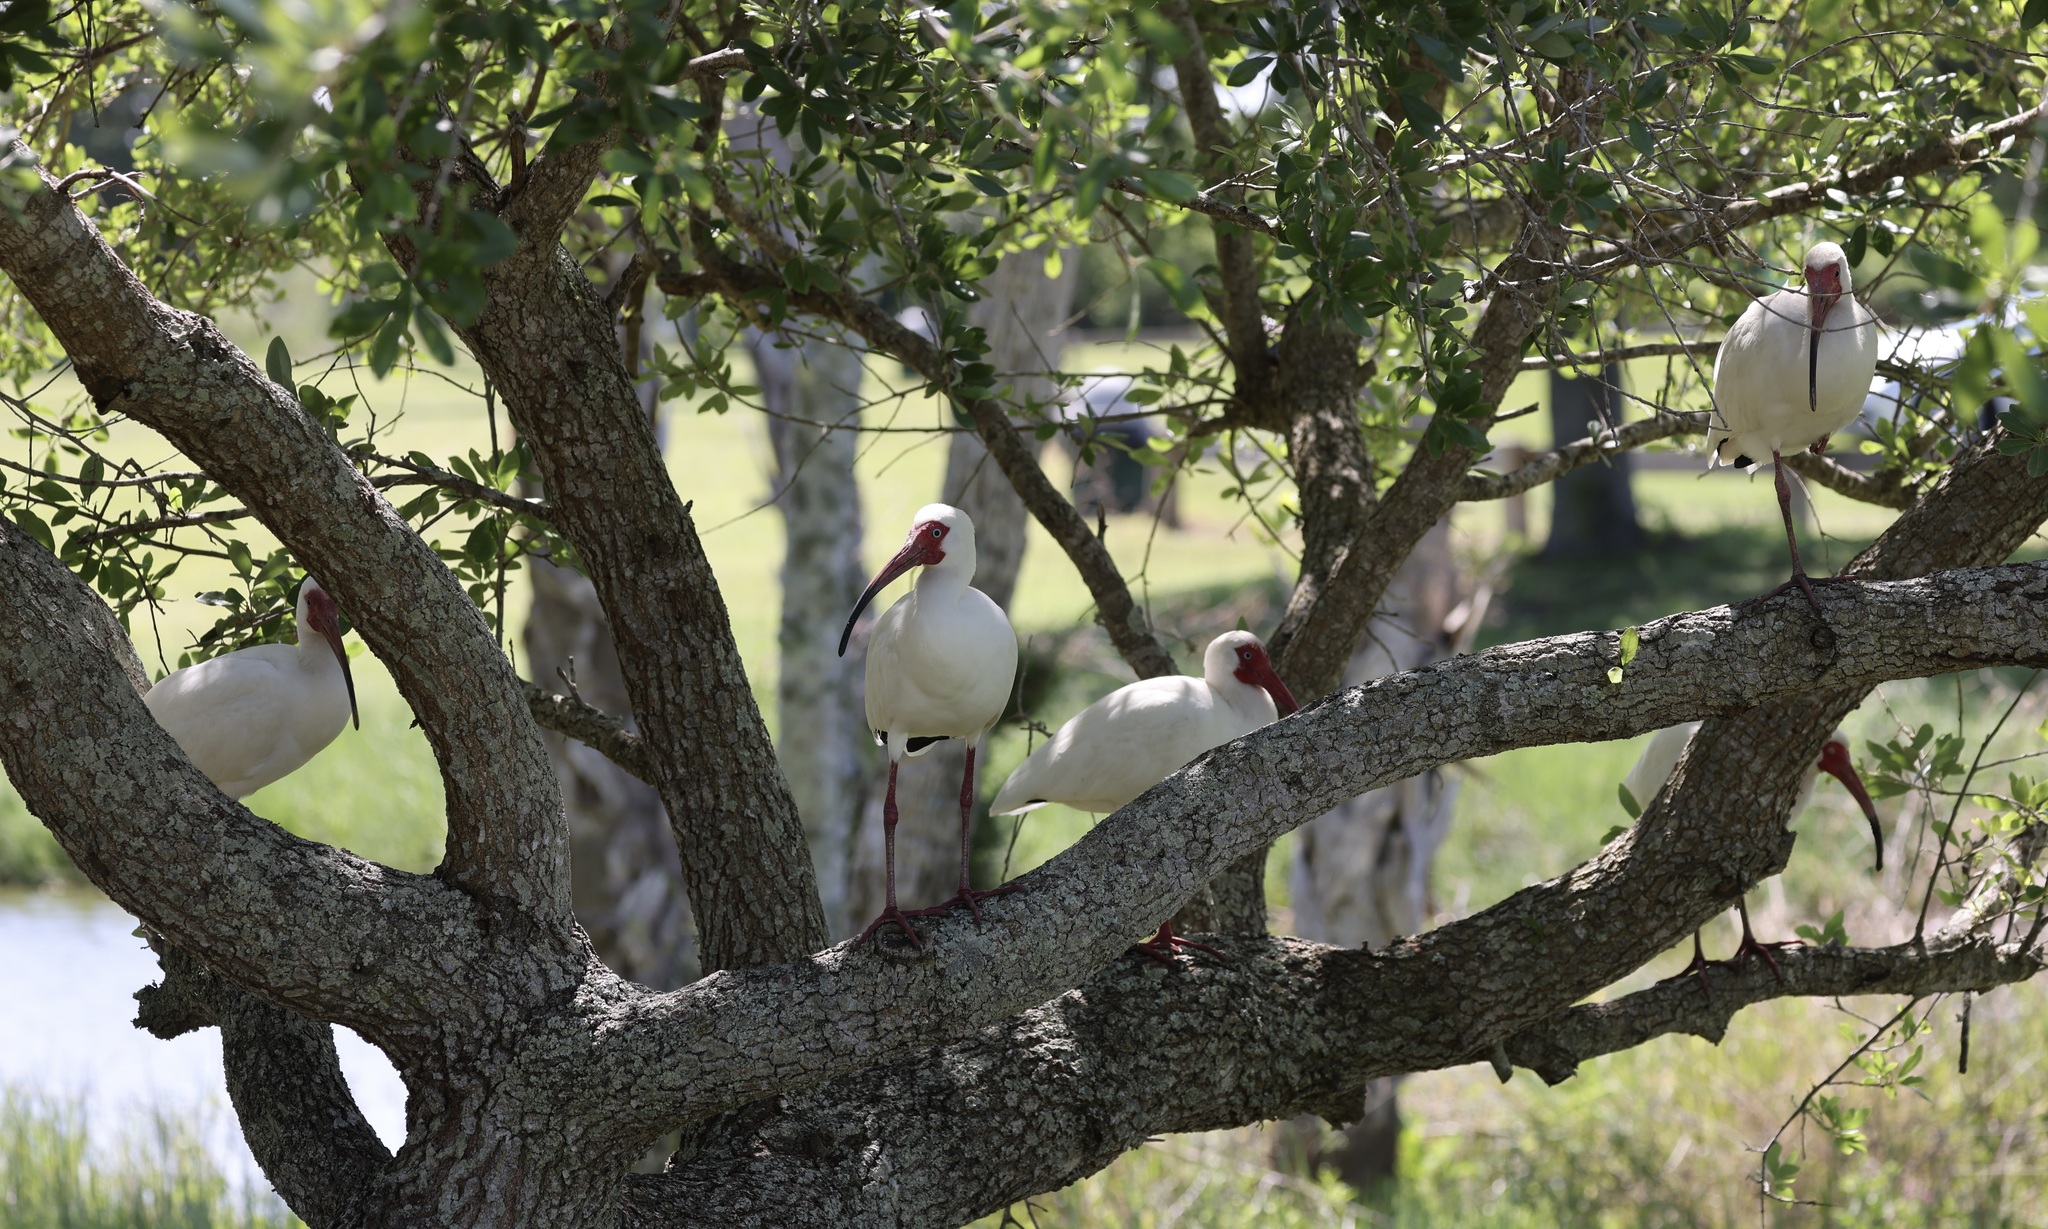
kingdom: Animalia
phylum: Chordata
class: Aves
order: Pelecaniformes
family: Threskiornithidae
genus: Eudocimus
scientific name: Eudocimus albus
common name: White ibis
